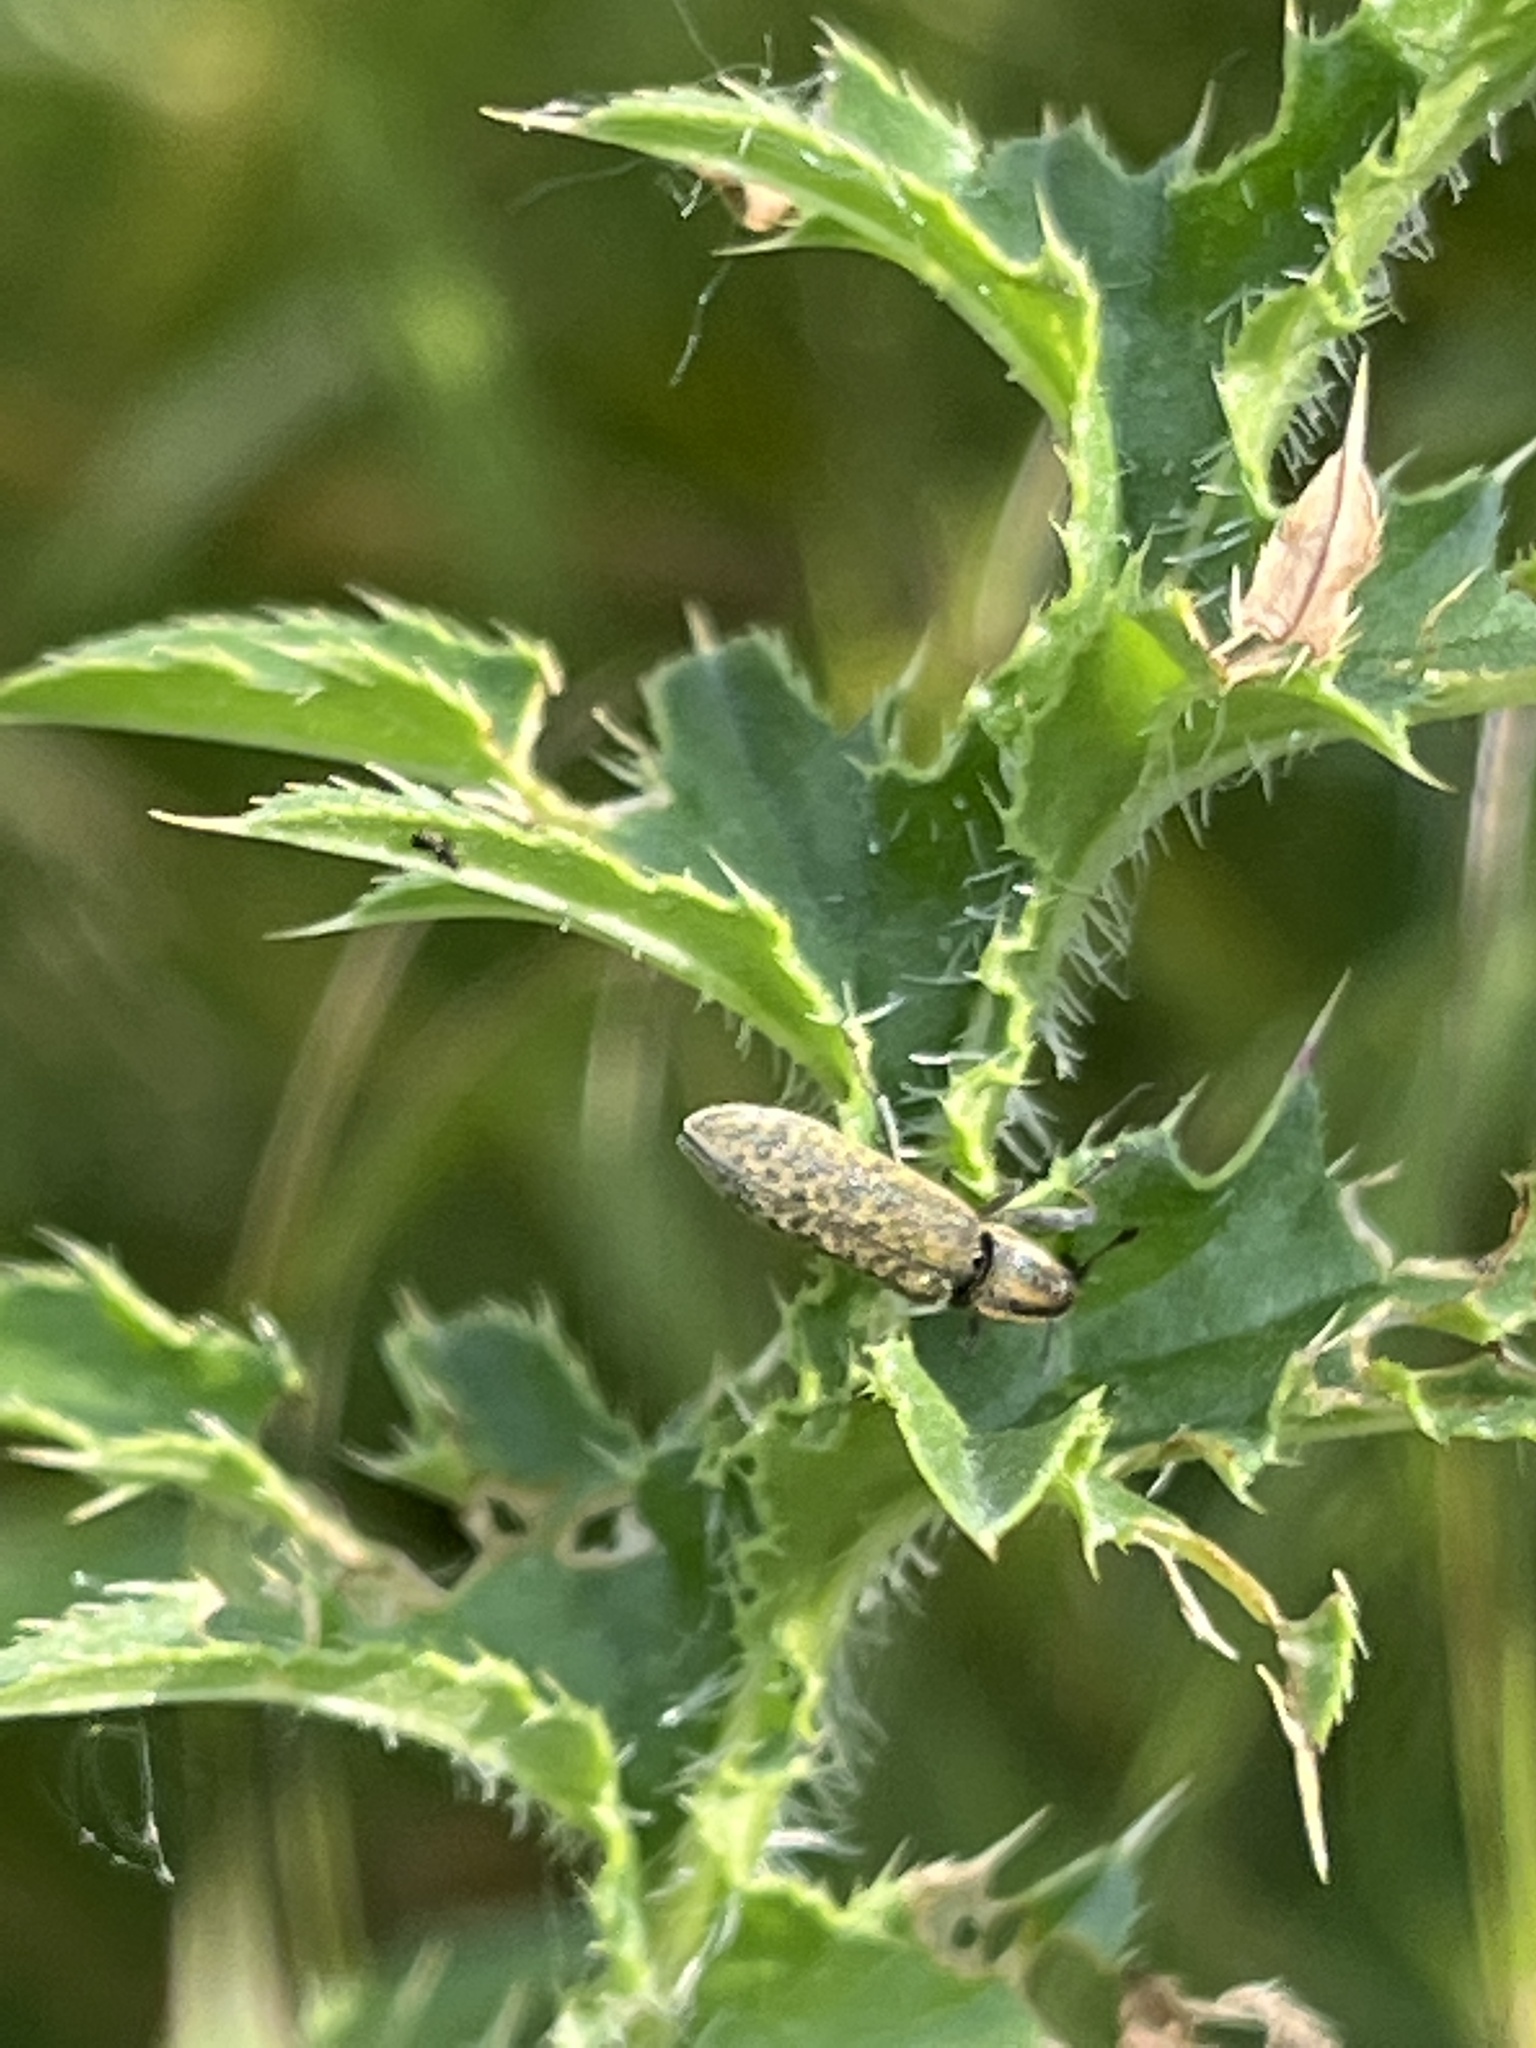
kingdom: Animalia
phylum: Arthropoda
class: Insecta
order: Coleoptera
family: Curculionidae
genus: Lixus
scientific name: Lixus filiformis
